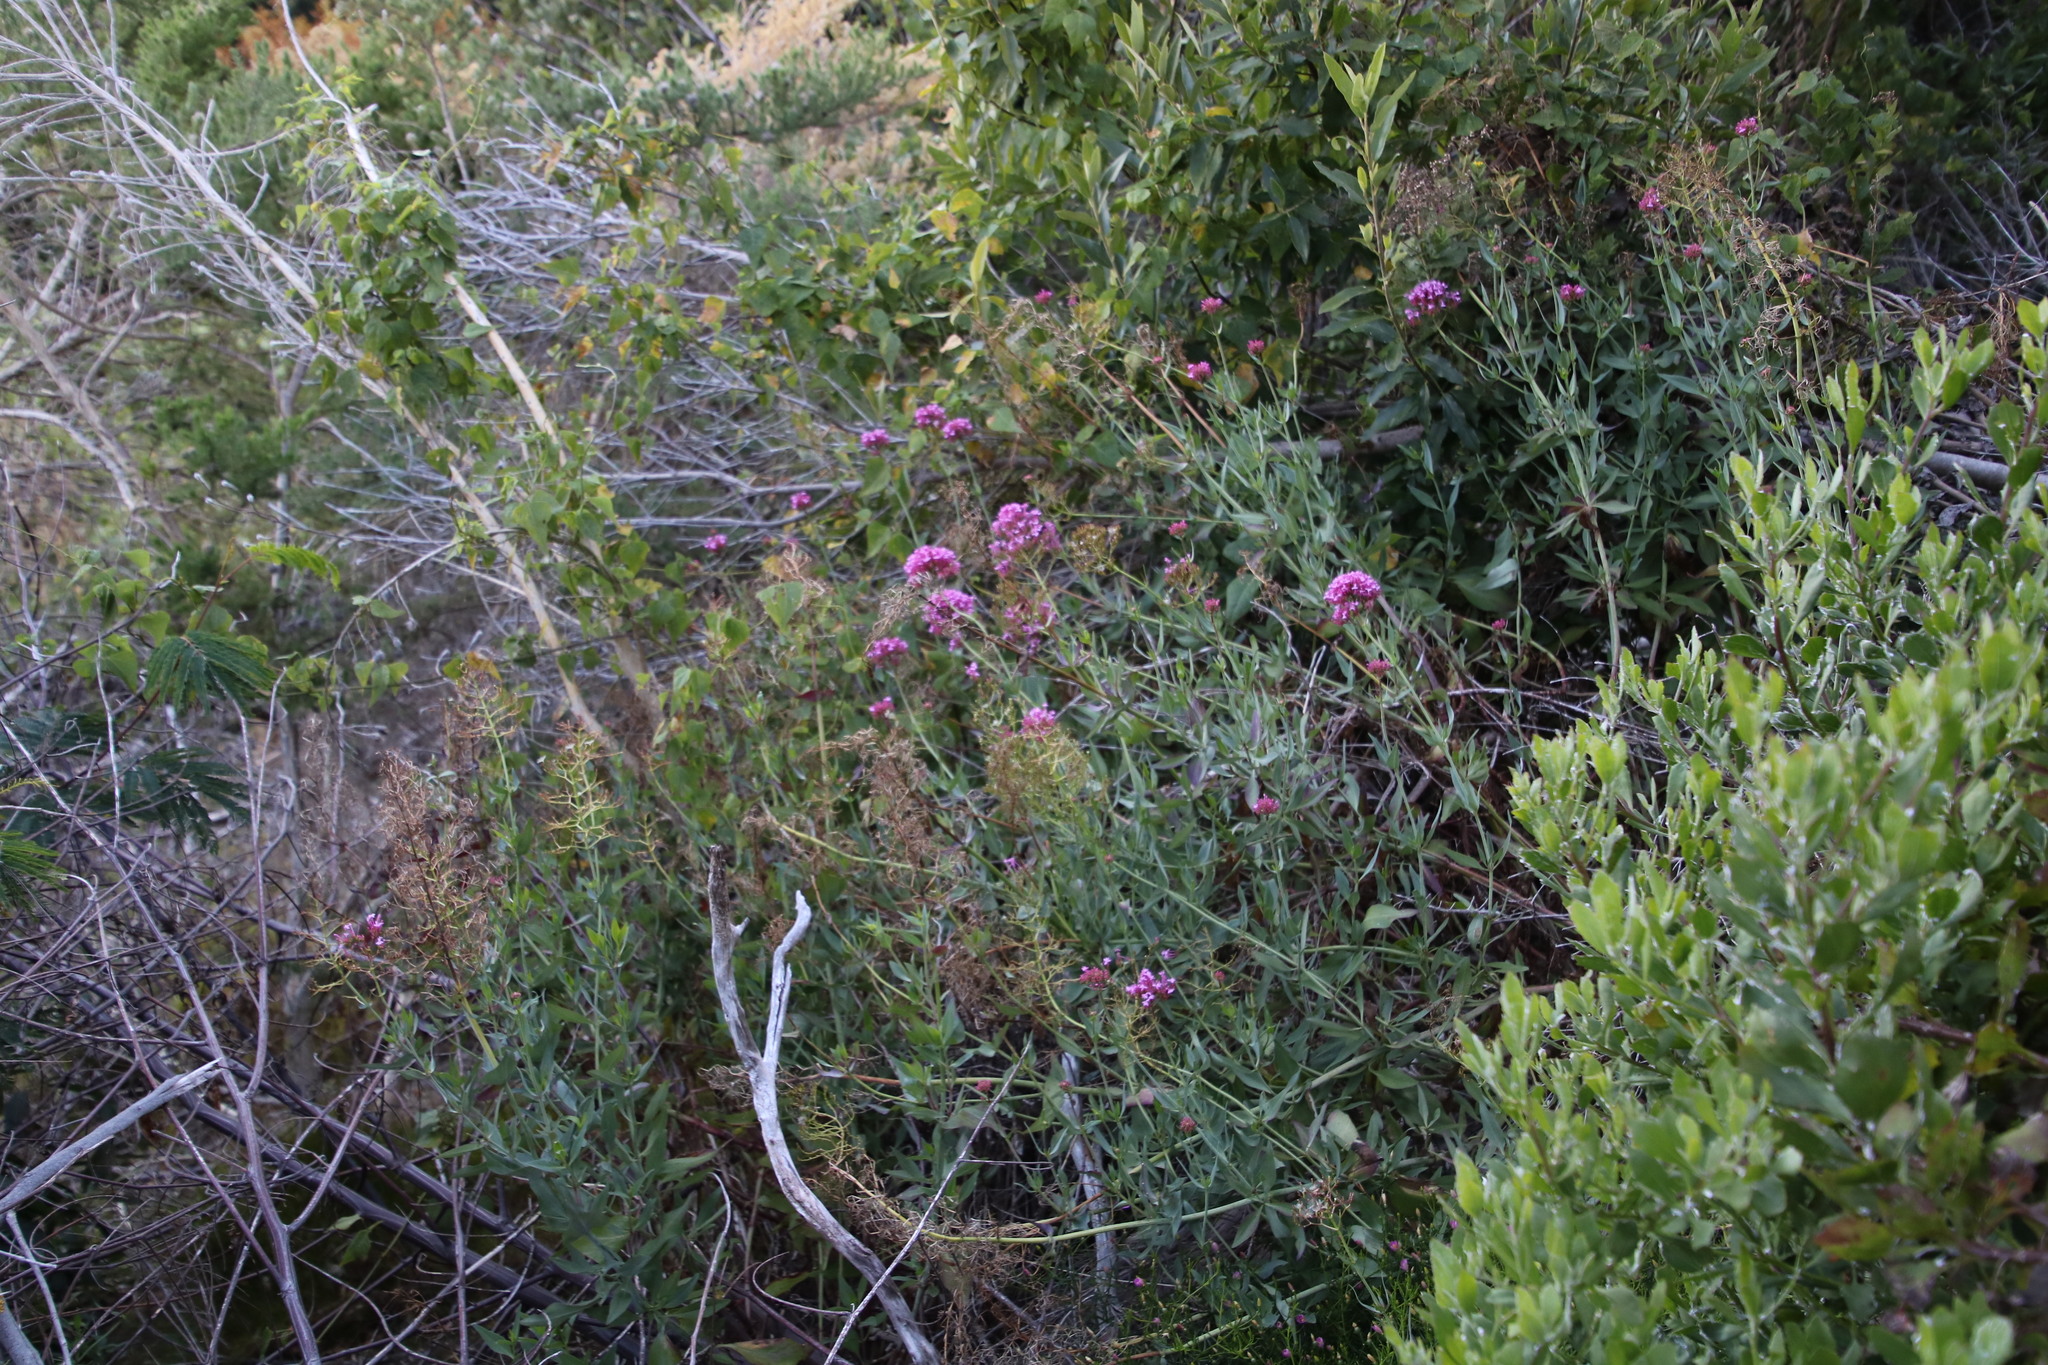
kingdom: Plantae
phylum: Tracheophyta
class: Magnoliopsida
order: Dipsacales
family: Caprifoliaceae
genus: Centranthus
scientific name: Centranthus ruber
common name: Red valerian
